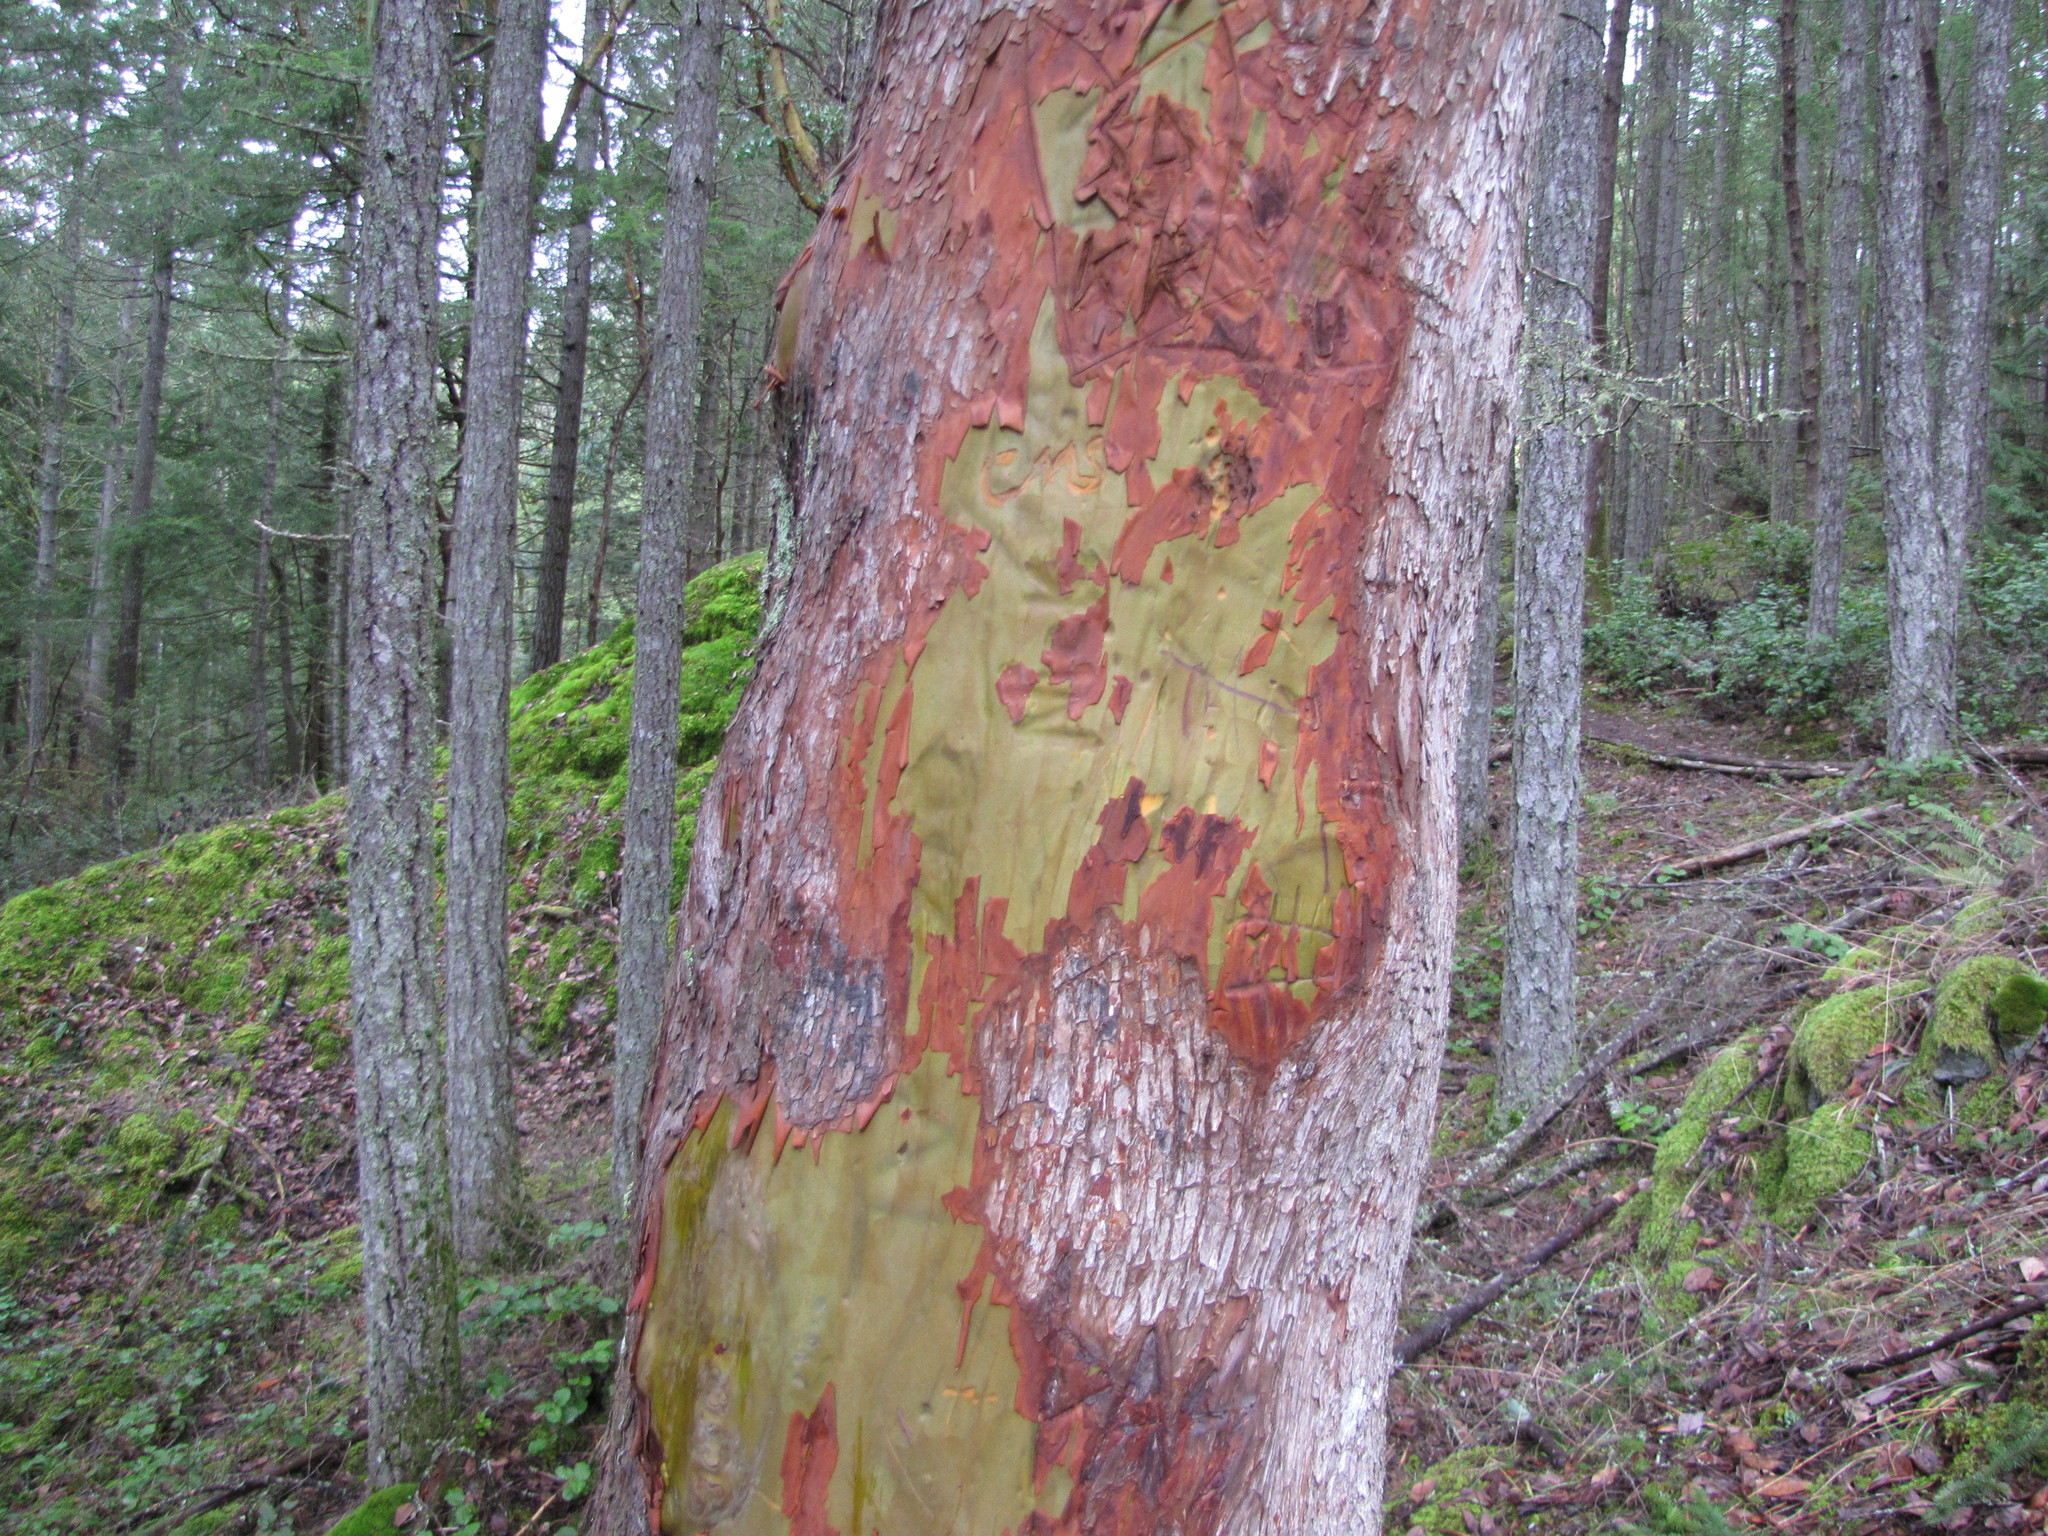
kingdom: Plantae
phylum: Tracheophyta
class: Magnoliopsida
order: Ericales
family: Ericaceae
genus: Arbutus
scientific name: Arbutus menziesii
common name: Pacific madrone
